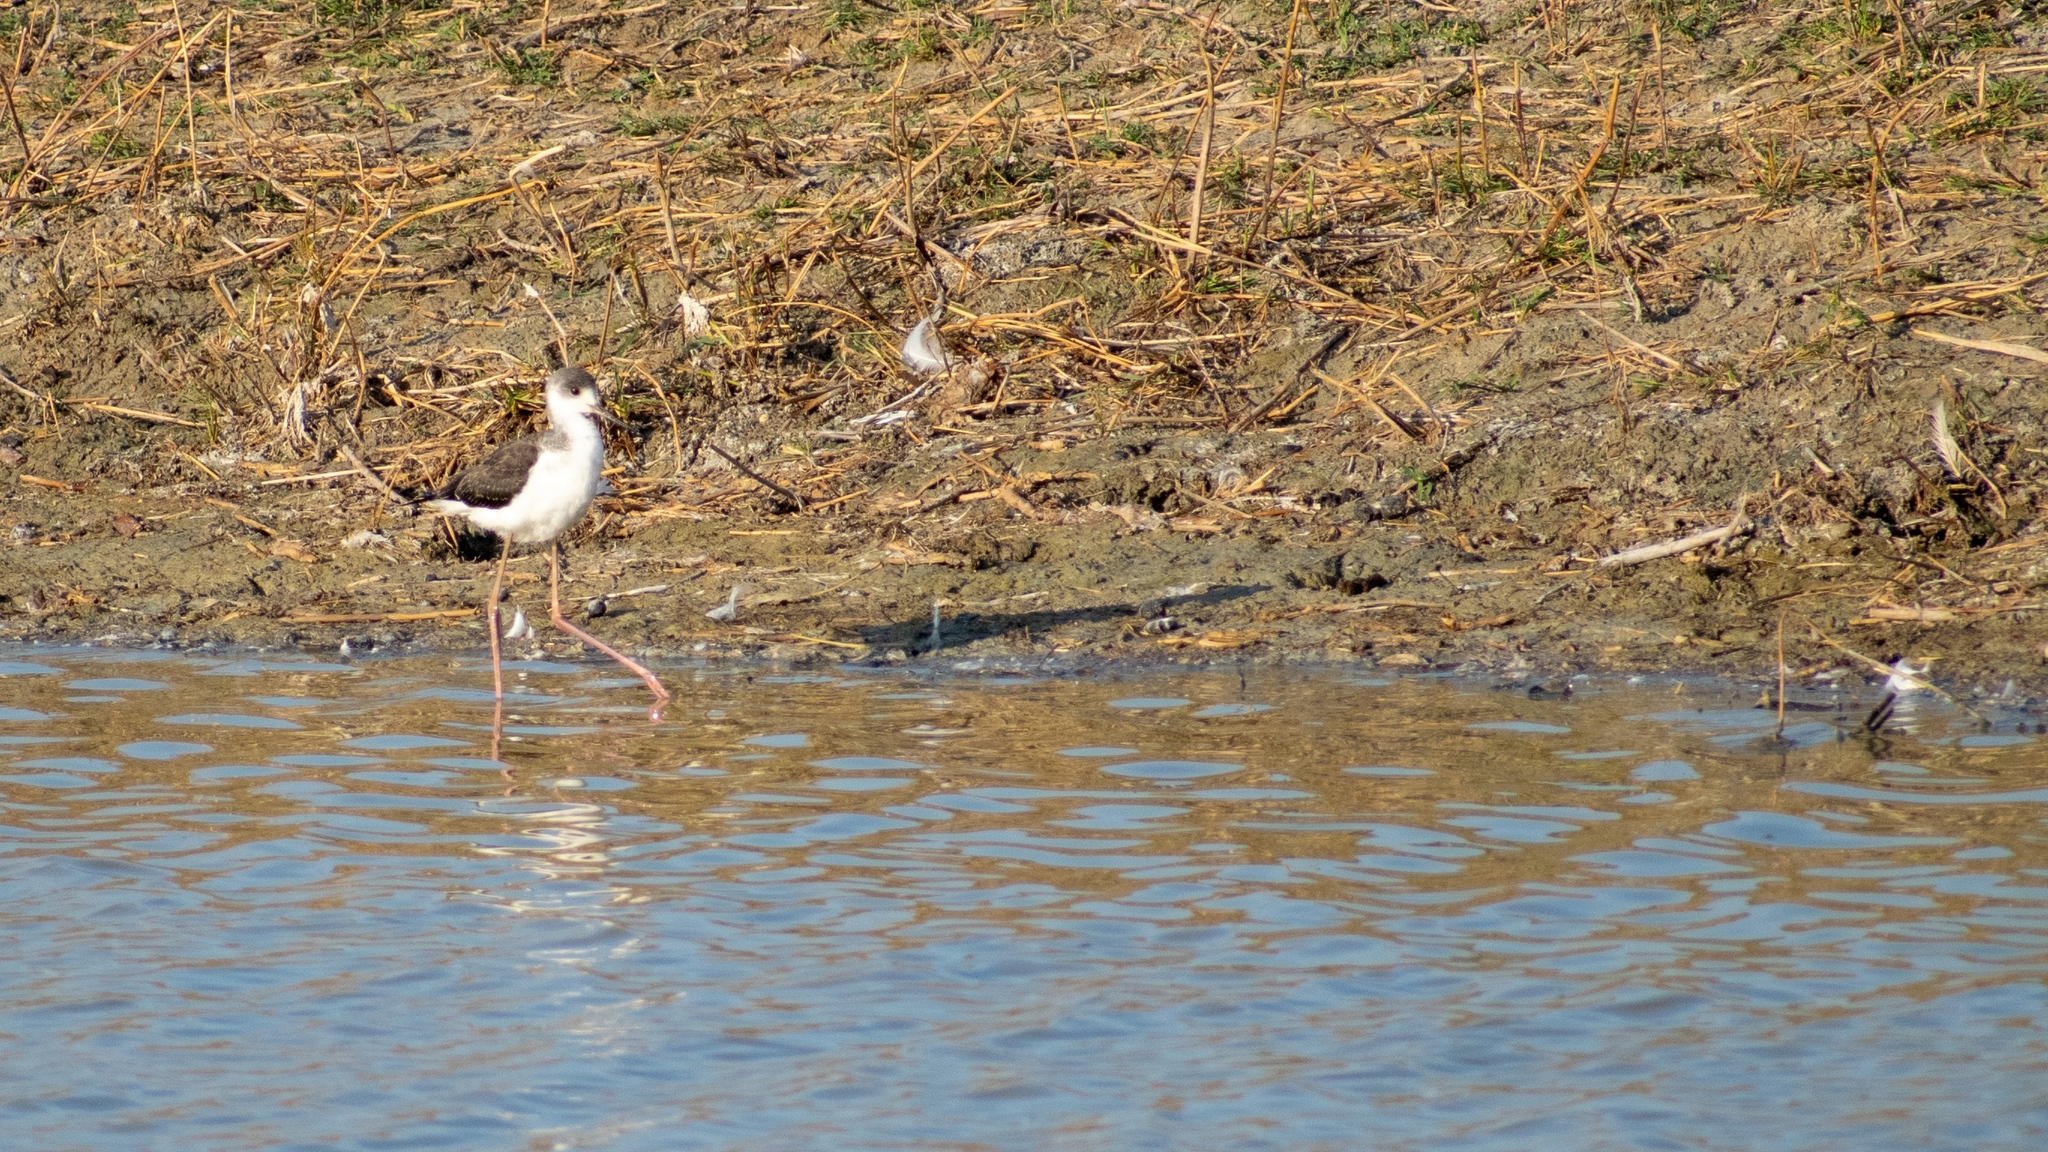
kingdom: Animalia
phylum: Chordata
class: Aves
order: Charadriiformes
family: Recurvirostridae
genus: Himantopus
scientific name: Himantopus himantopus
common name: Black-winged stilt
